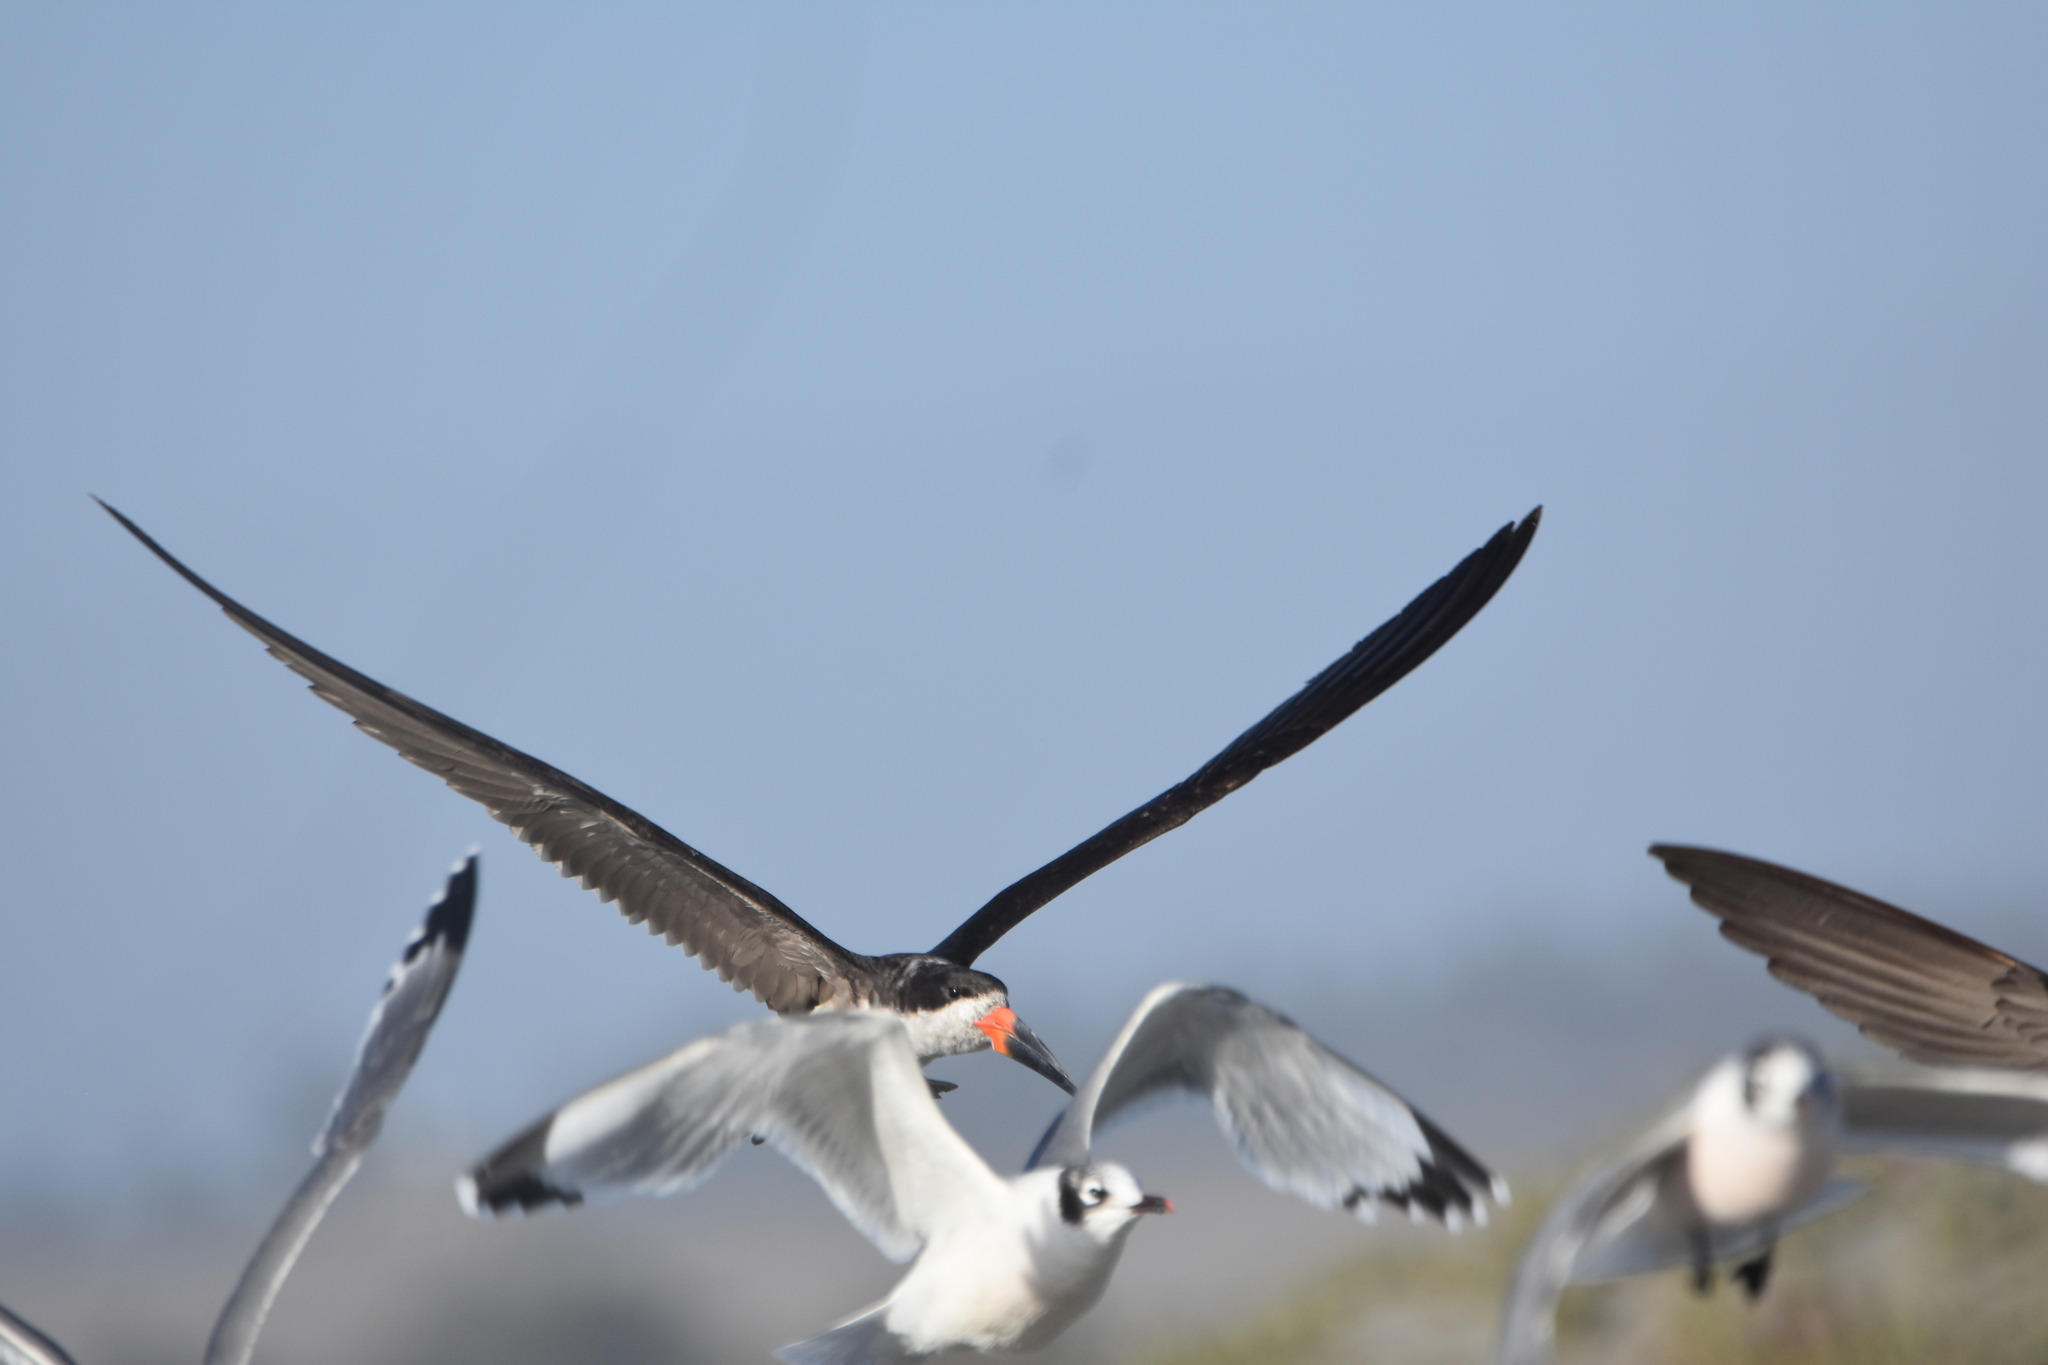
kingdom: Animalia
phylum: Chordata
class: Aves
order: Charadriiformes
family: Laridae
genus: Rynchops
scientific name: Rynchops niger
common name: Black skimmer
